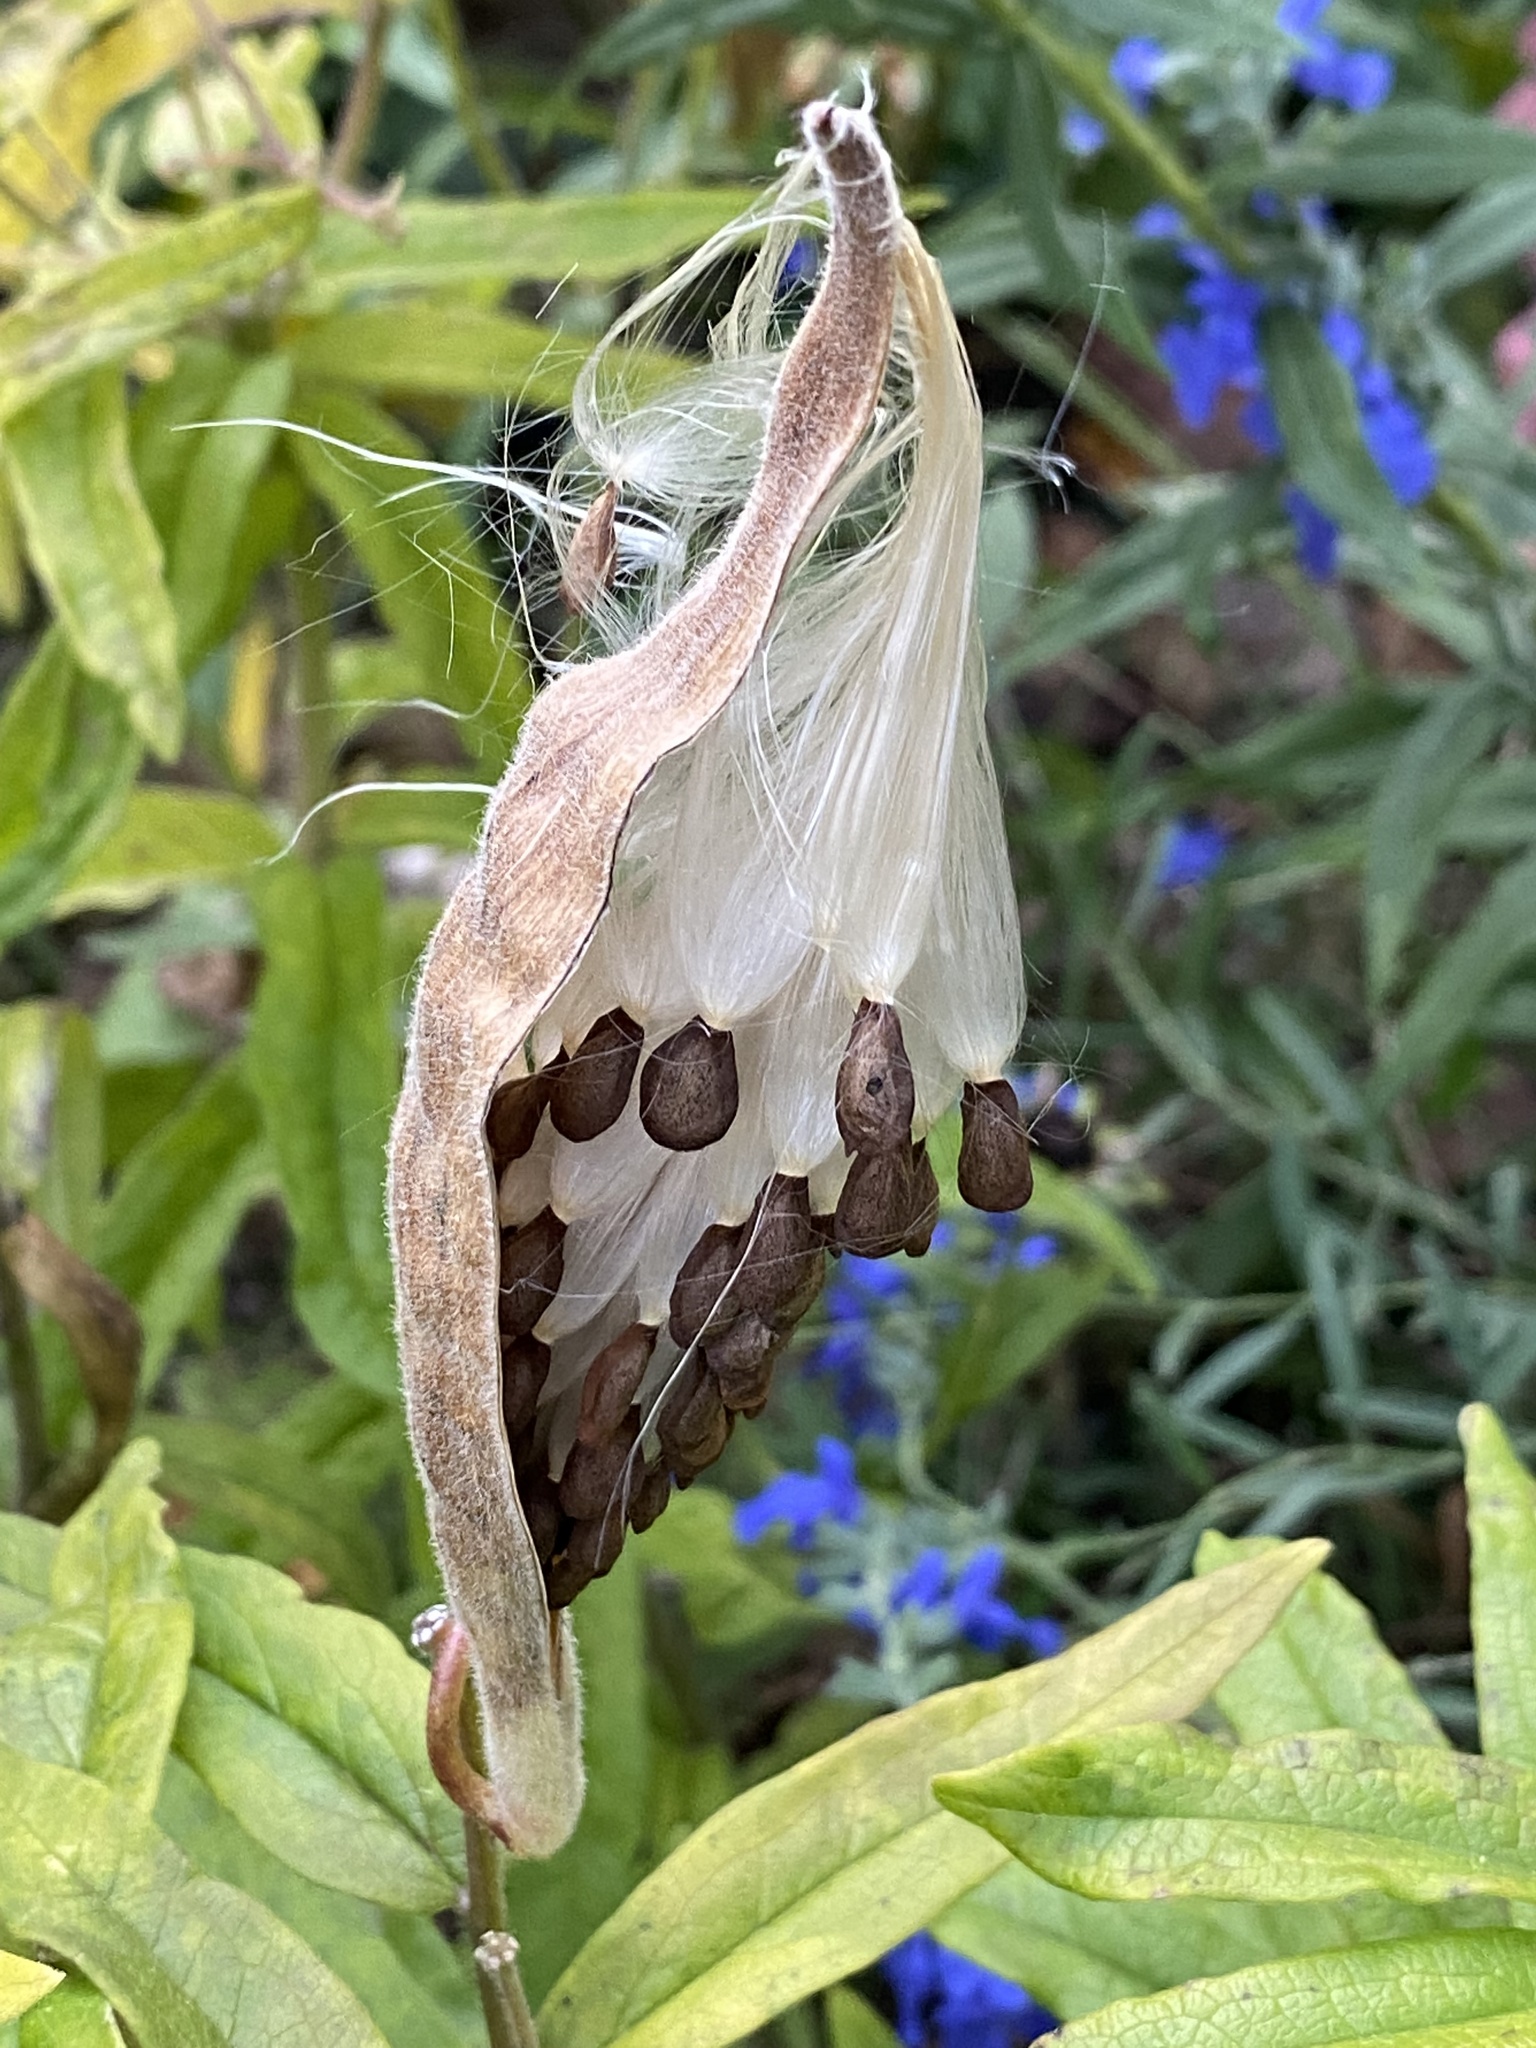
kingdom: Plantae
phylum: Tracheophyta
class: Magnoliopsida
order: Gentianales
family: Apocynaceae
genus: Asclepias
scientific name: Asclepias tuberosa
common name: Butterfly milkweed
